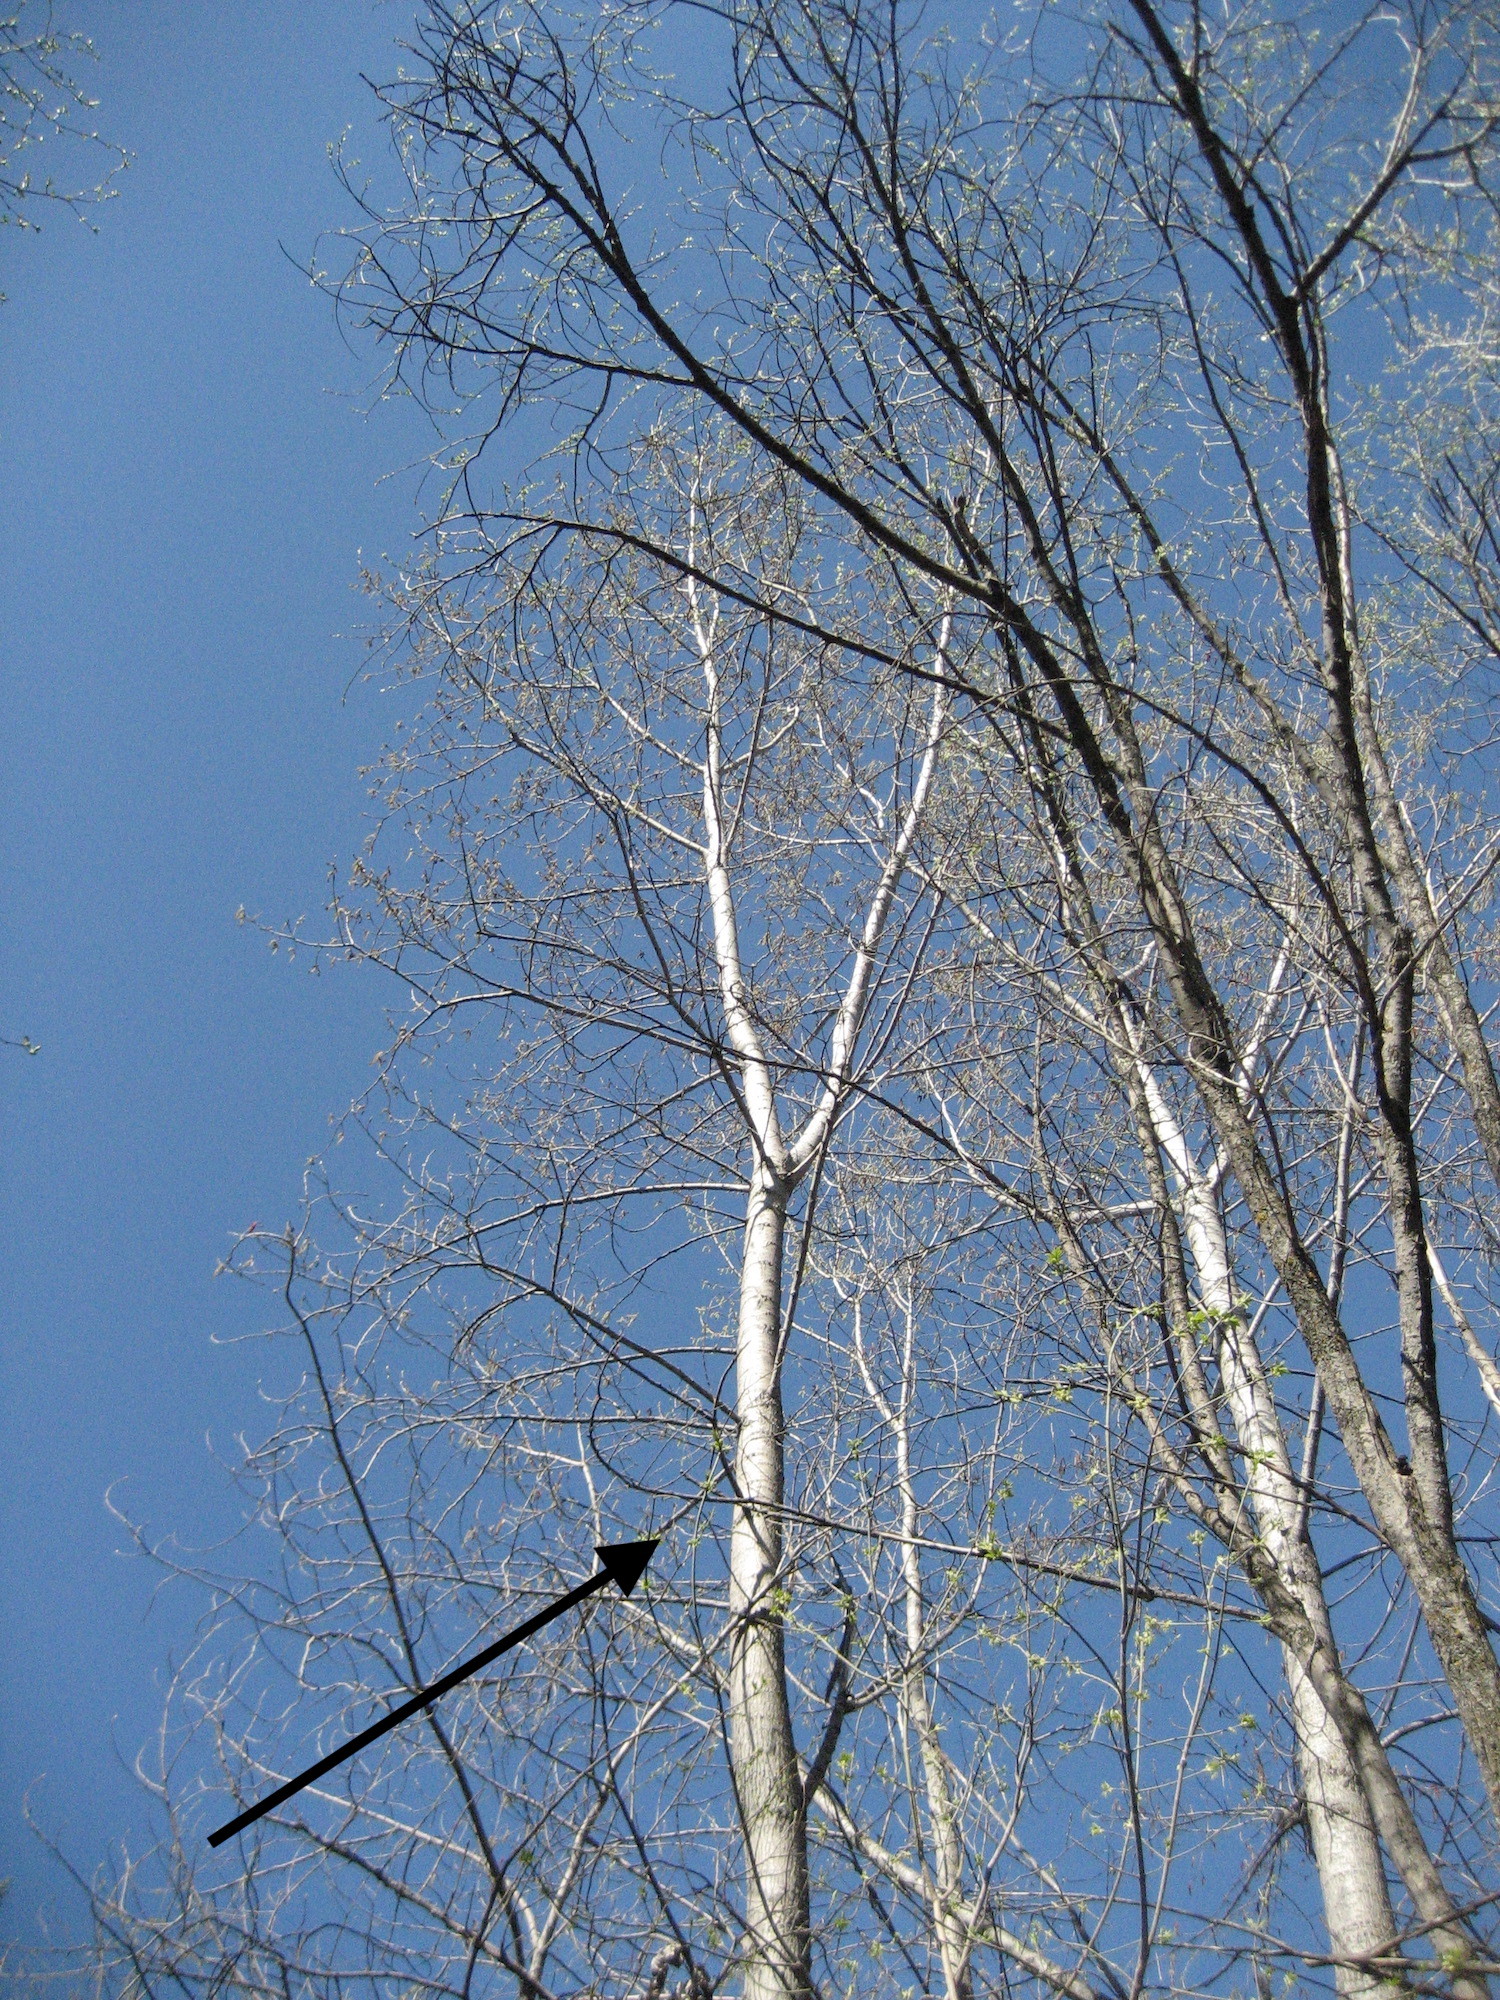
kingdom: Plantae
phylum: Tracheophyta
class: Magnoliopsida
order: Malpighiales
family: Salicaceae
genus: Populus
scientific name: Populus deltoides
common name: Eastern cottonwood
